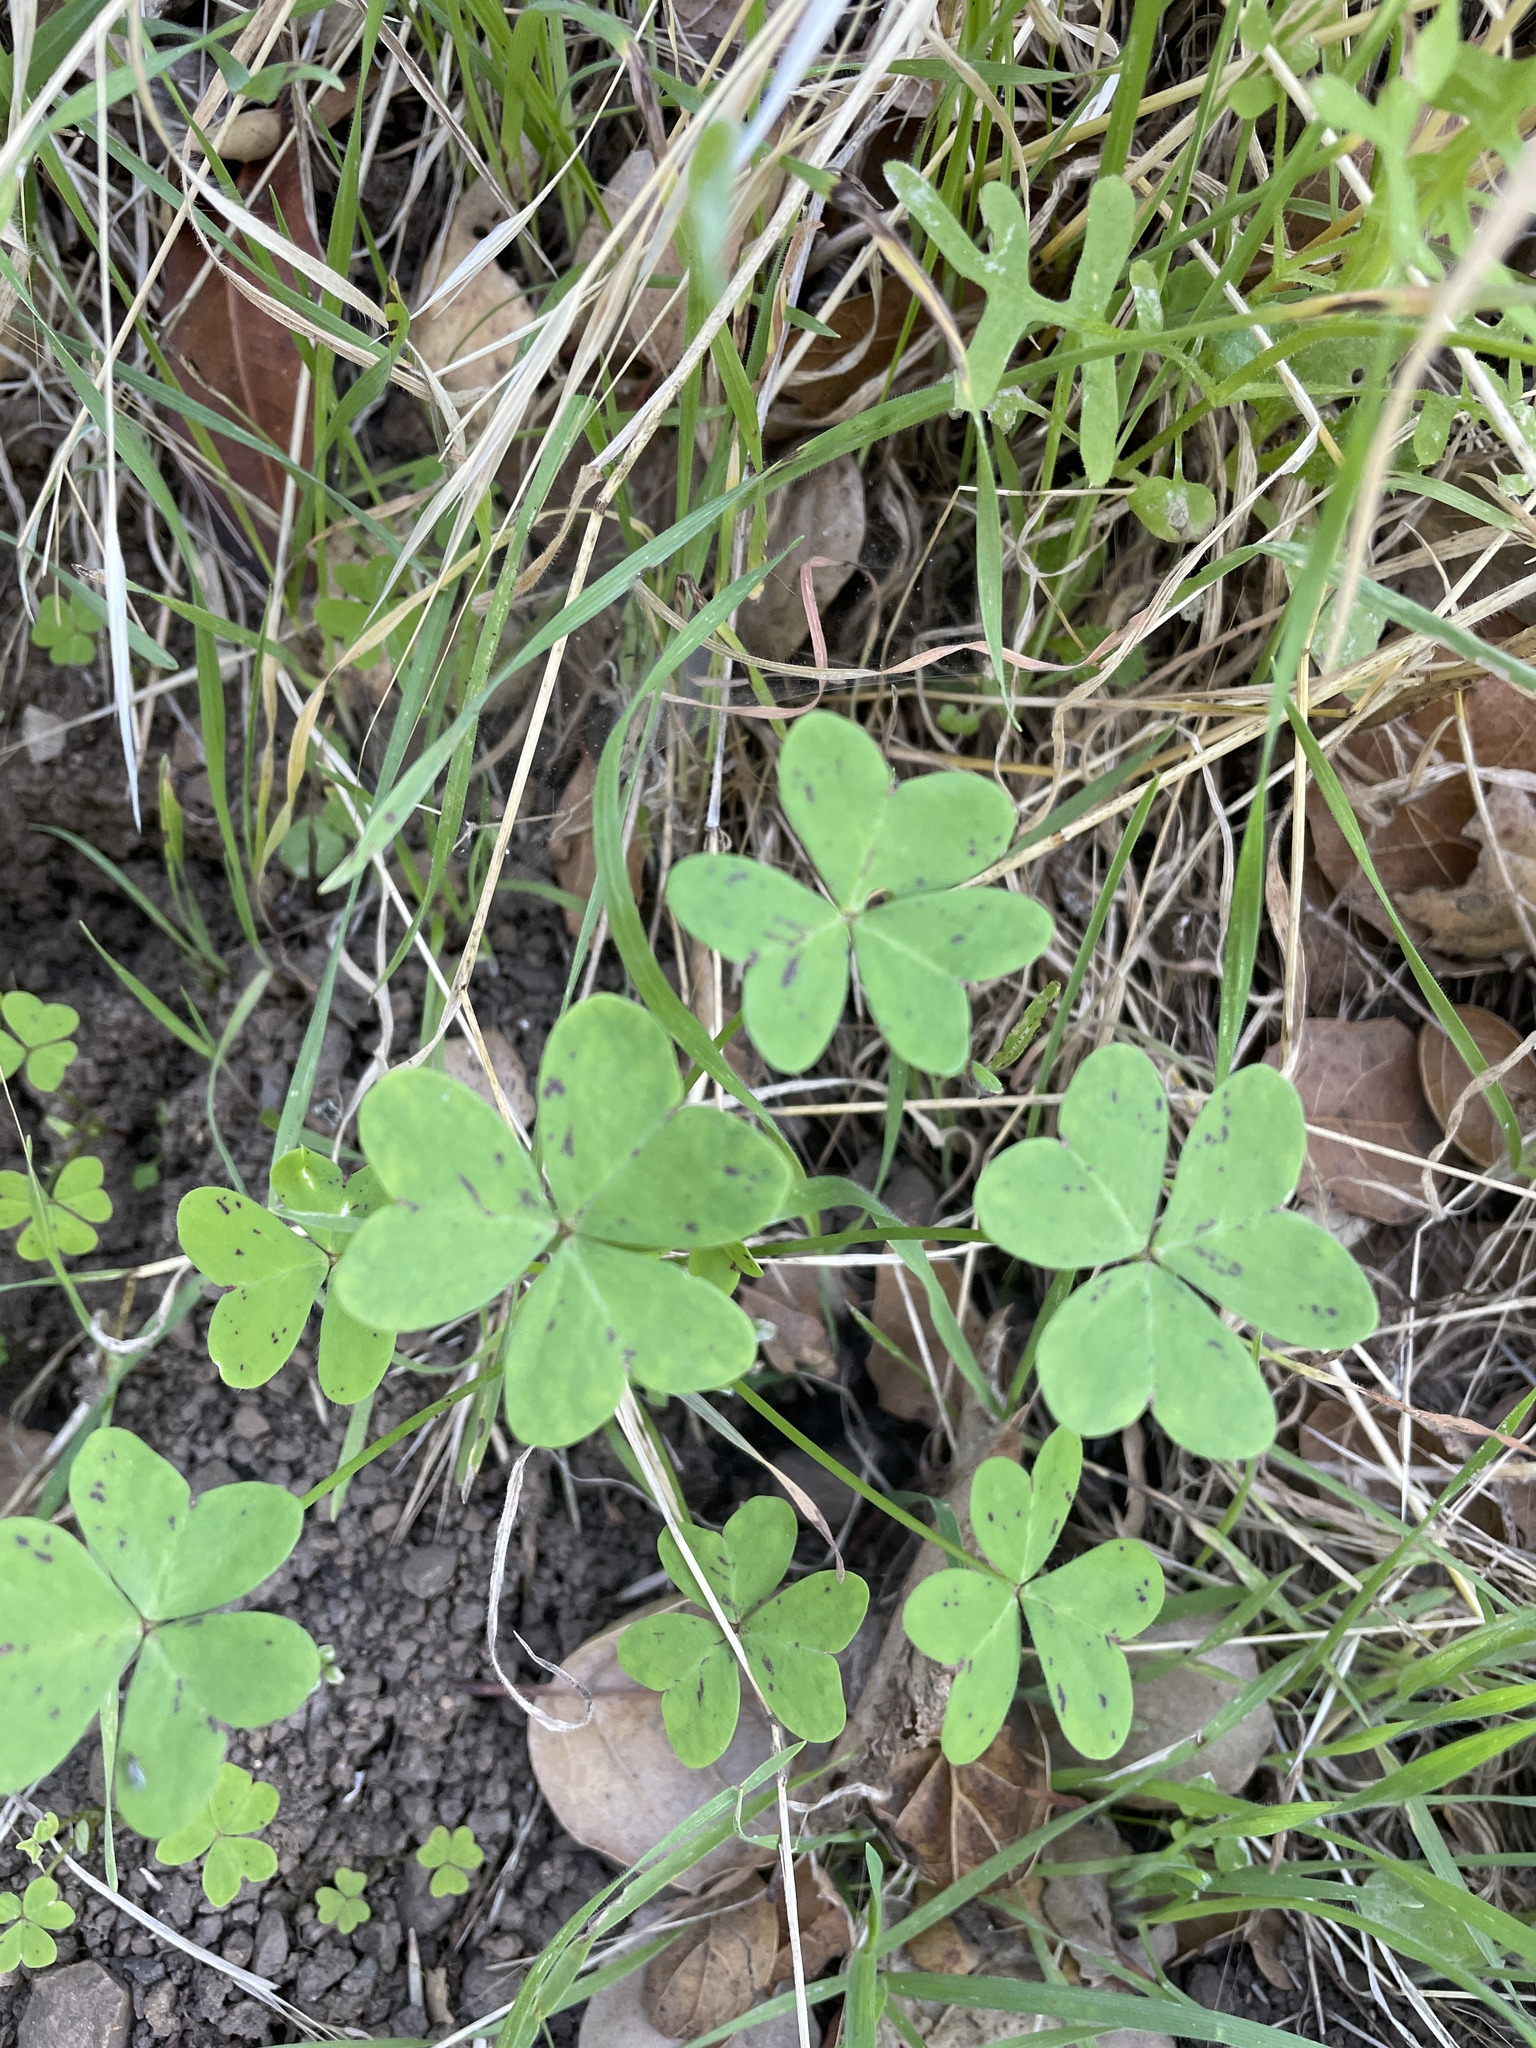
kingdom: Plantae
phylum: Tracheophyta
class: Magnoliopsida
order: Oxalidales
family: Oxalidaceae
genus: Oxalis
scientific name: Oxalis pes-caprae
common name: Bermuda-buttercup
